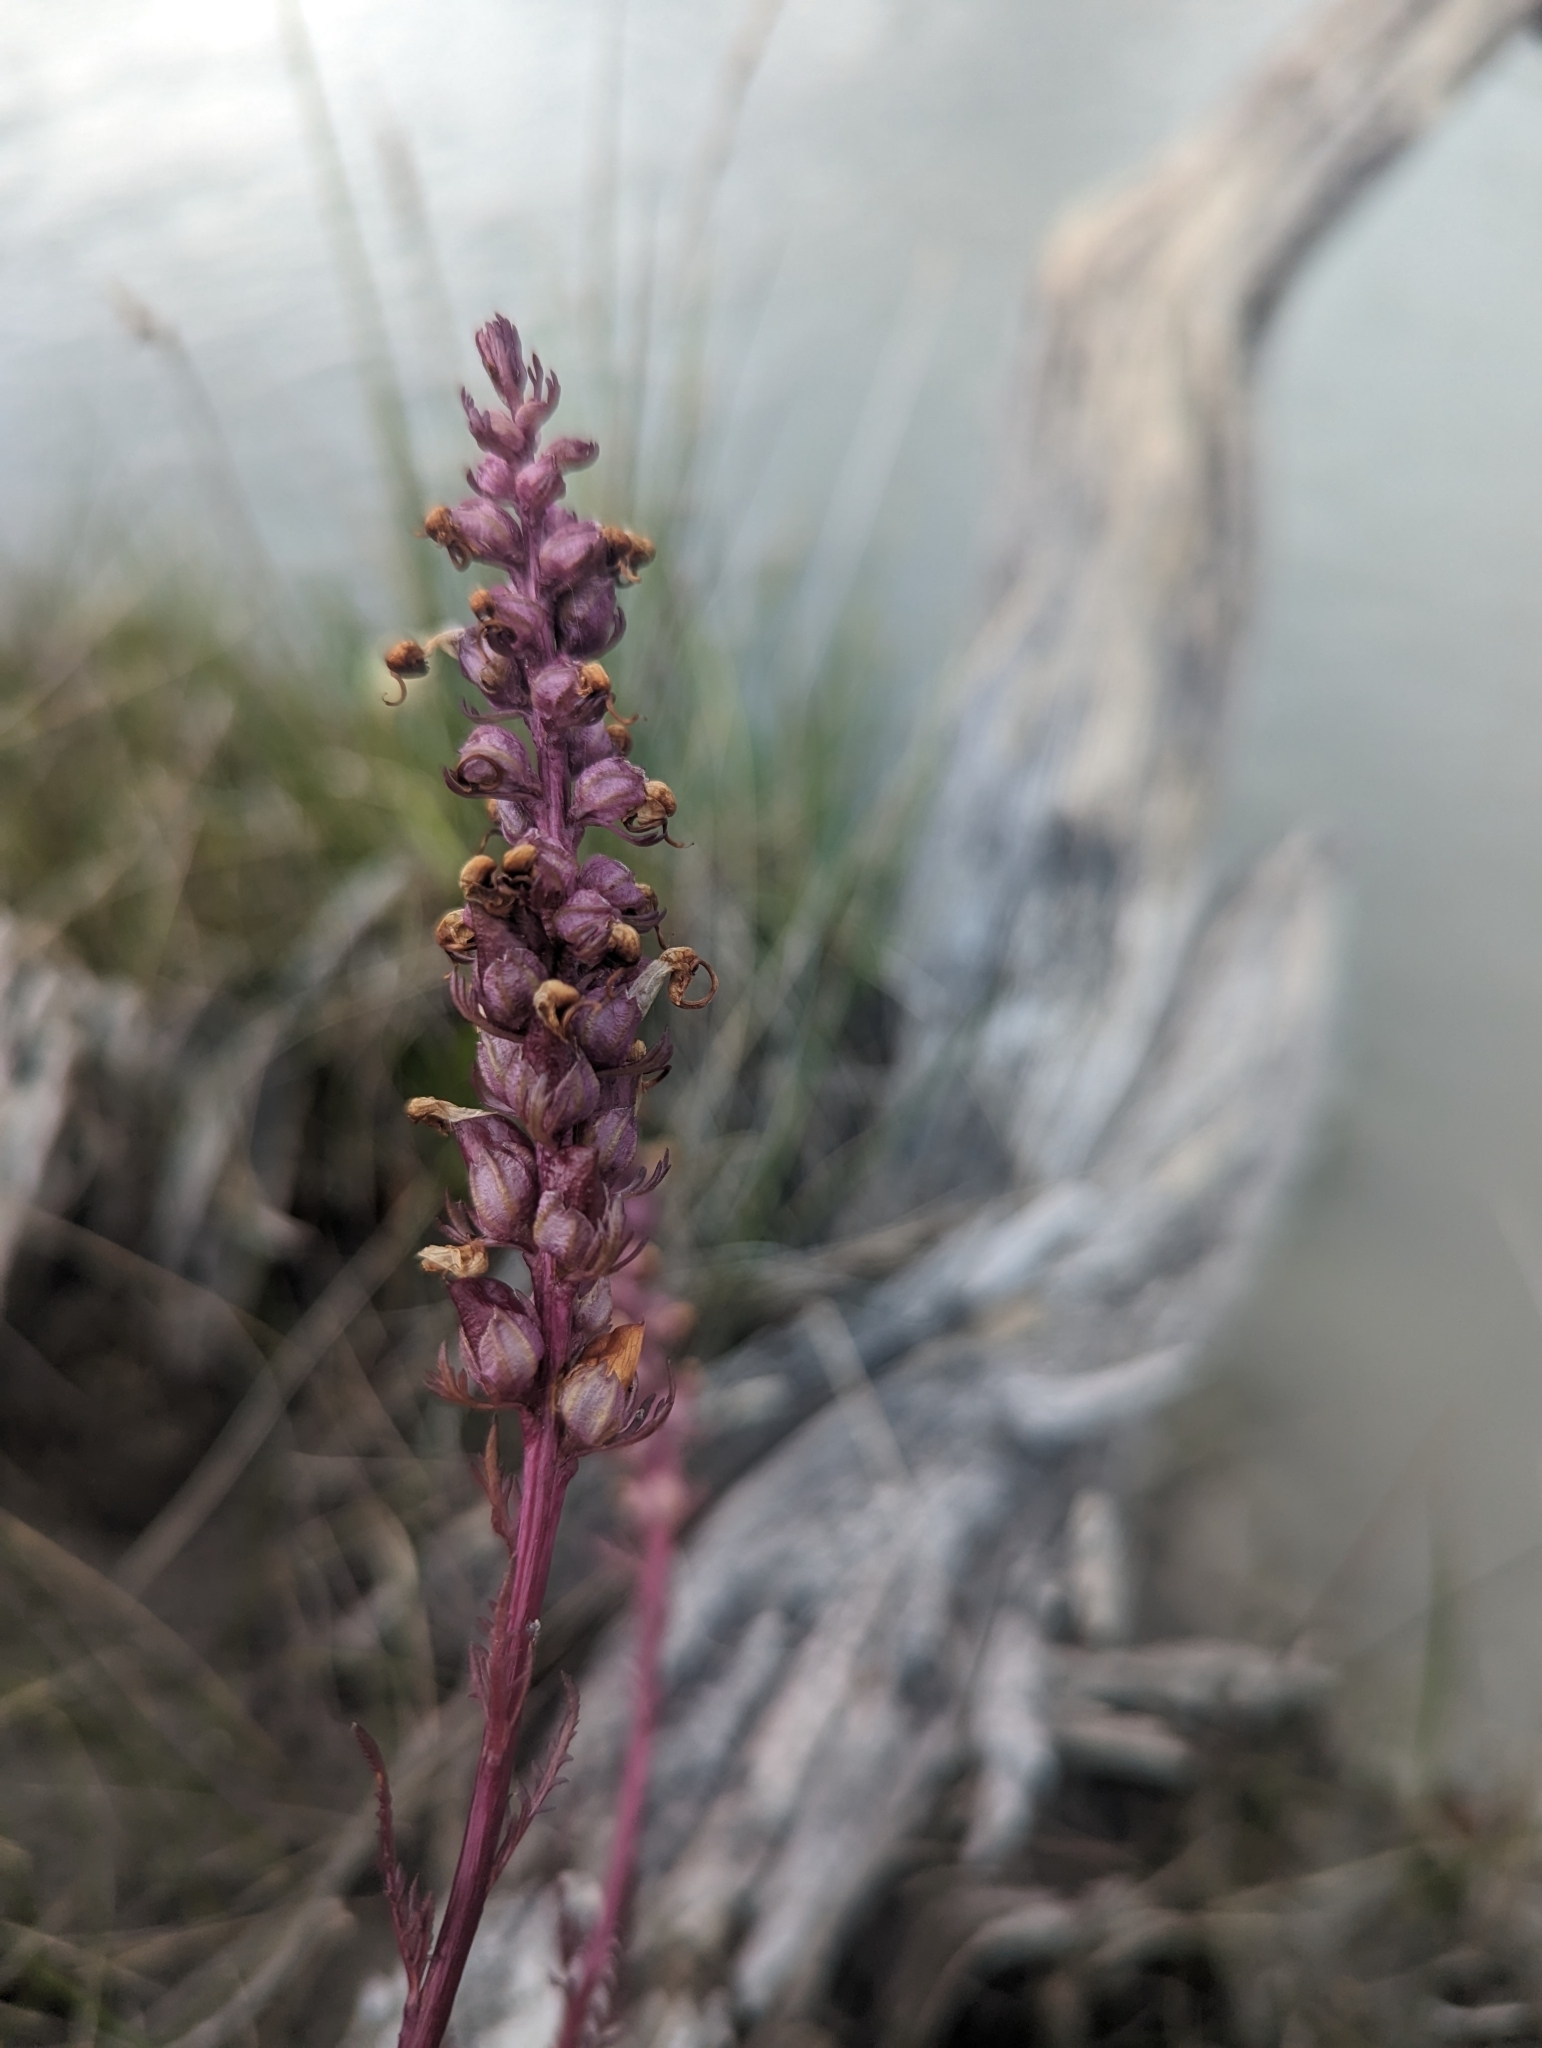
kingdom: Plantae
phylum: Tracheophyta
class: Magnoliopsida
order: Lamiales
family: Orobanchaceae
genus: Pedicularis
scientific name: Pedicularis groenlandica
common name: Elephant's-head
